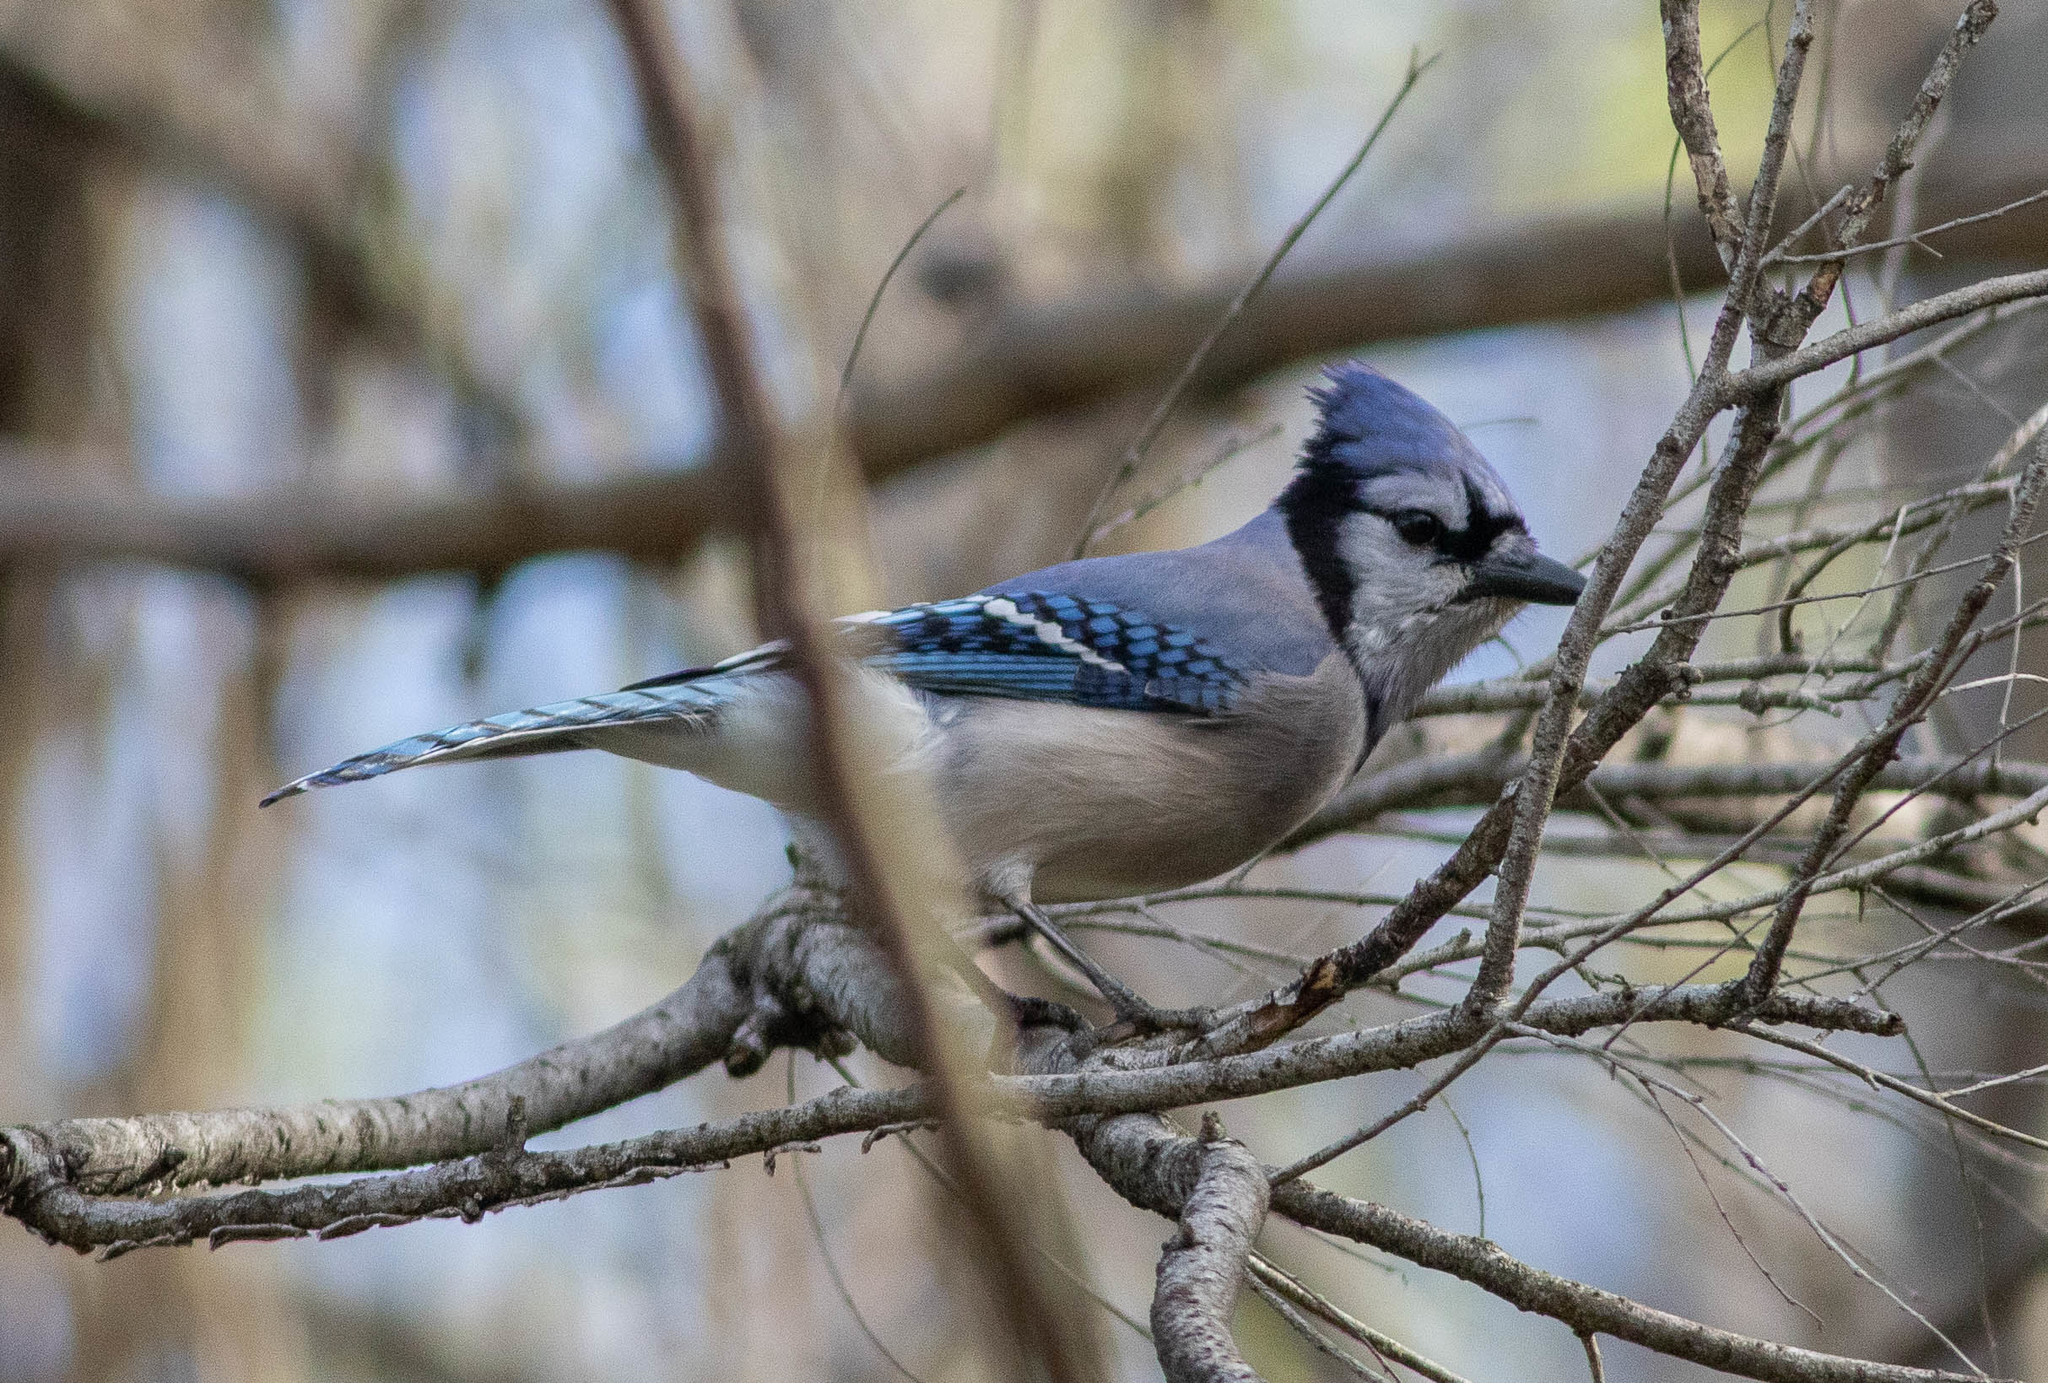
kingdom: Animalia
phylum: Chordata
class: Aves
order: Passeriformes
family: Corvidae
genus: Cyanocitta
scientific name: Cyanocitta cristata
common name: Blue jay
